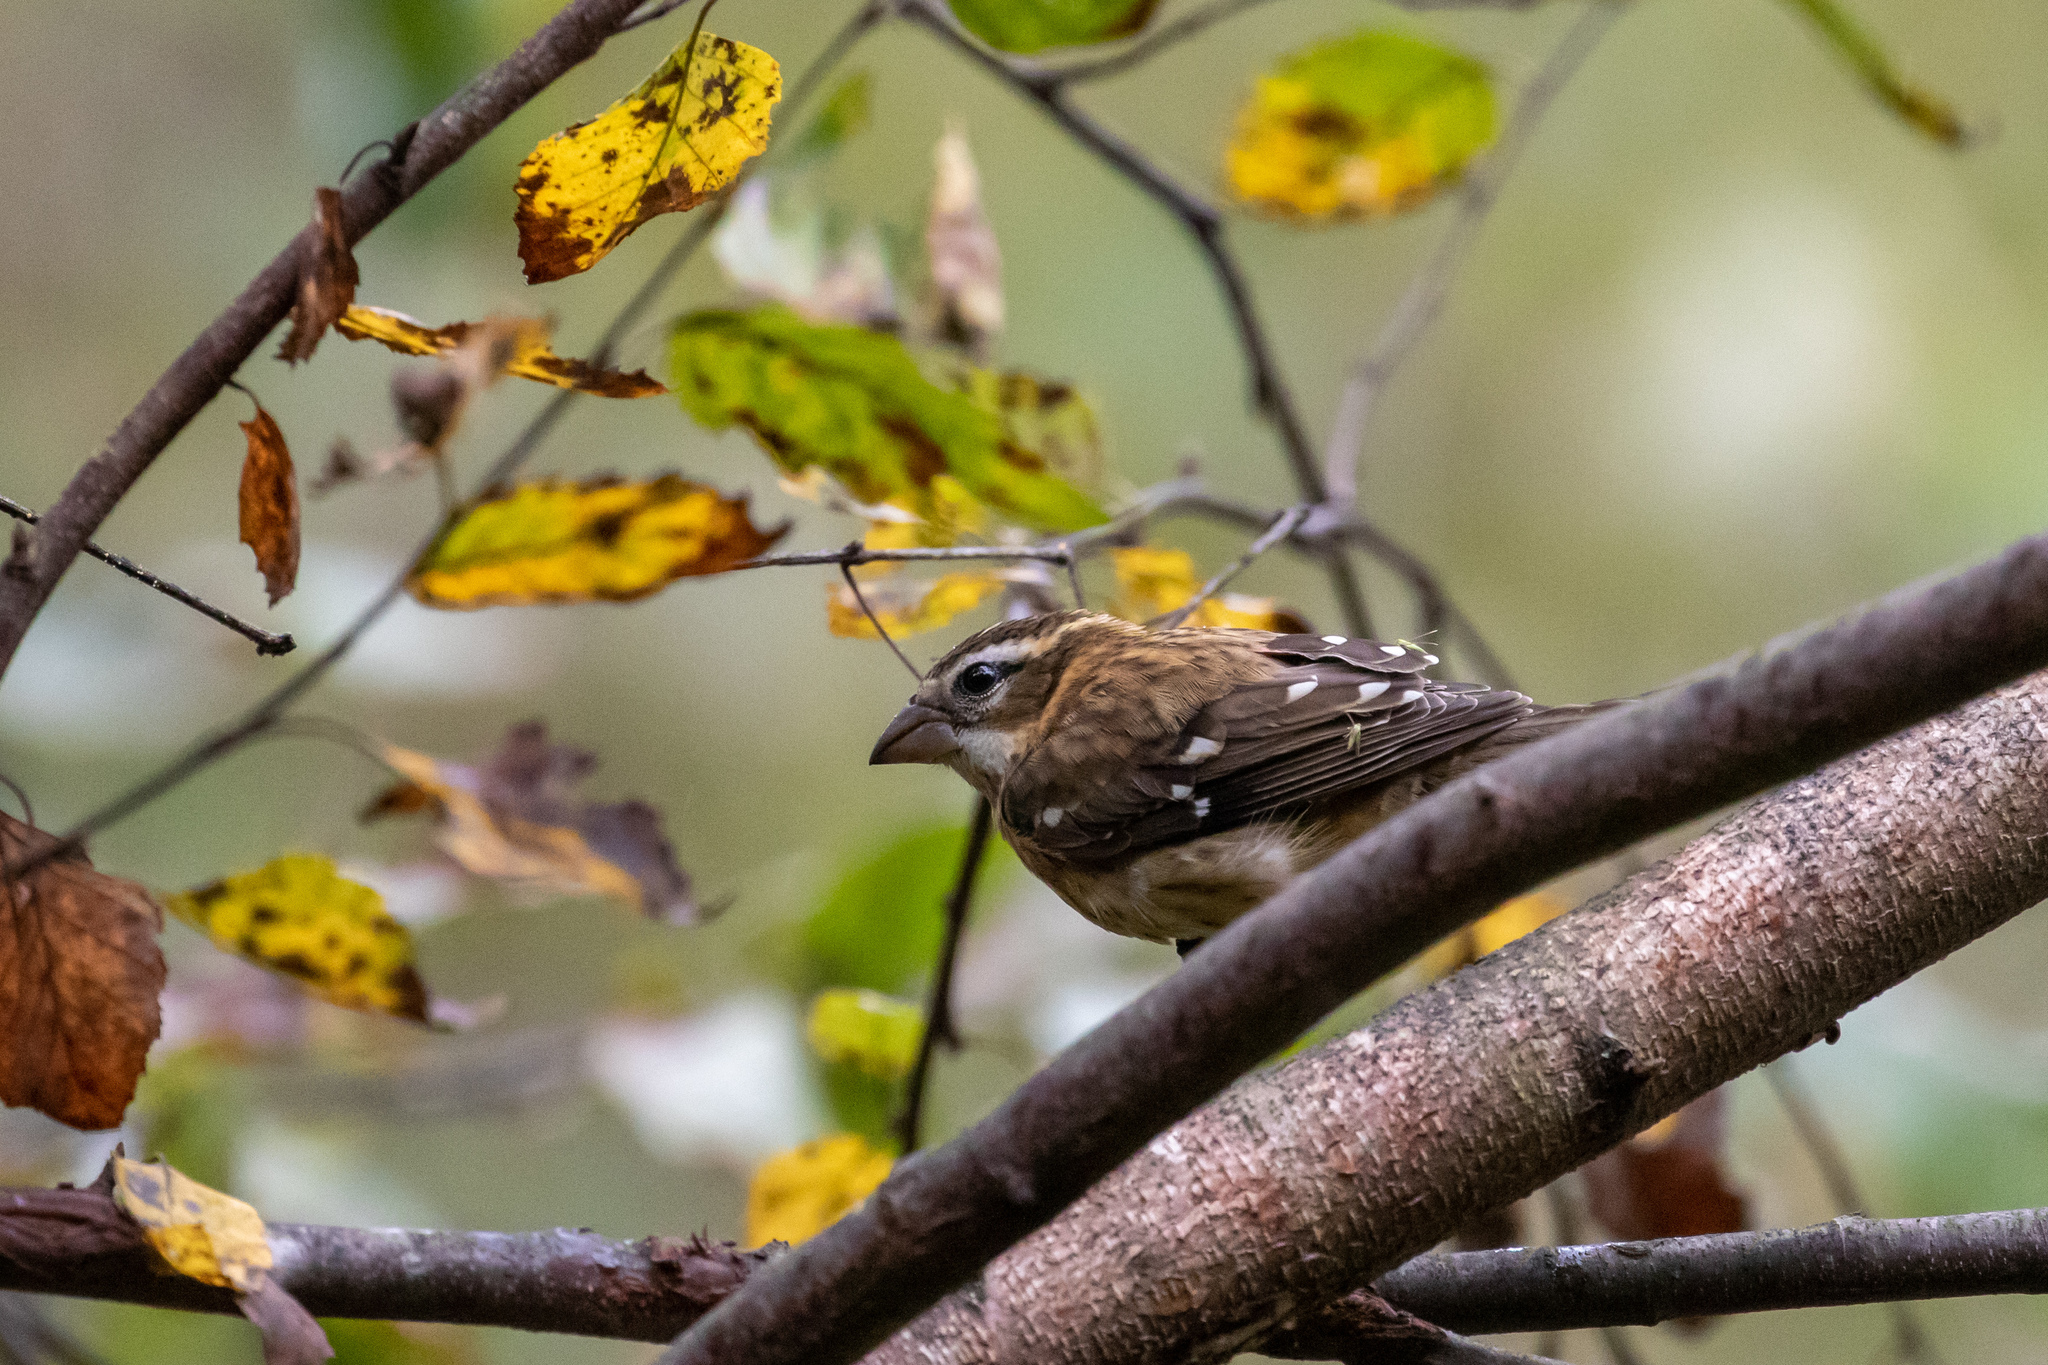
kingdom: Animalia
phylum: Chordata
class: Aves
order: Passeriformes
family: Cardinalidae
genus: Pheucticus
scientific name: Pheucticus ludovicianus
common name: Rose-breasted grosbeak
